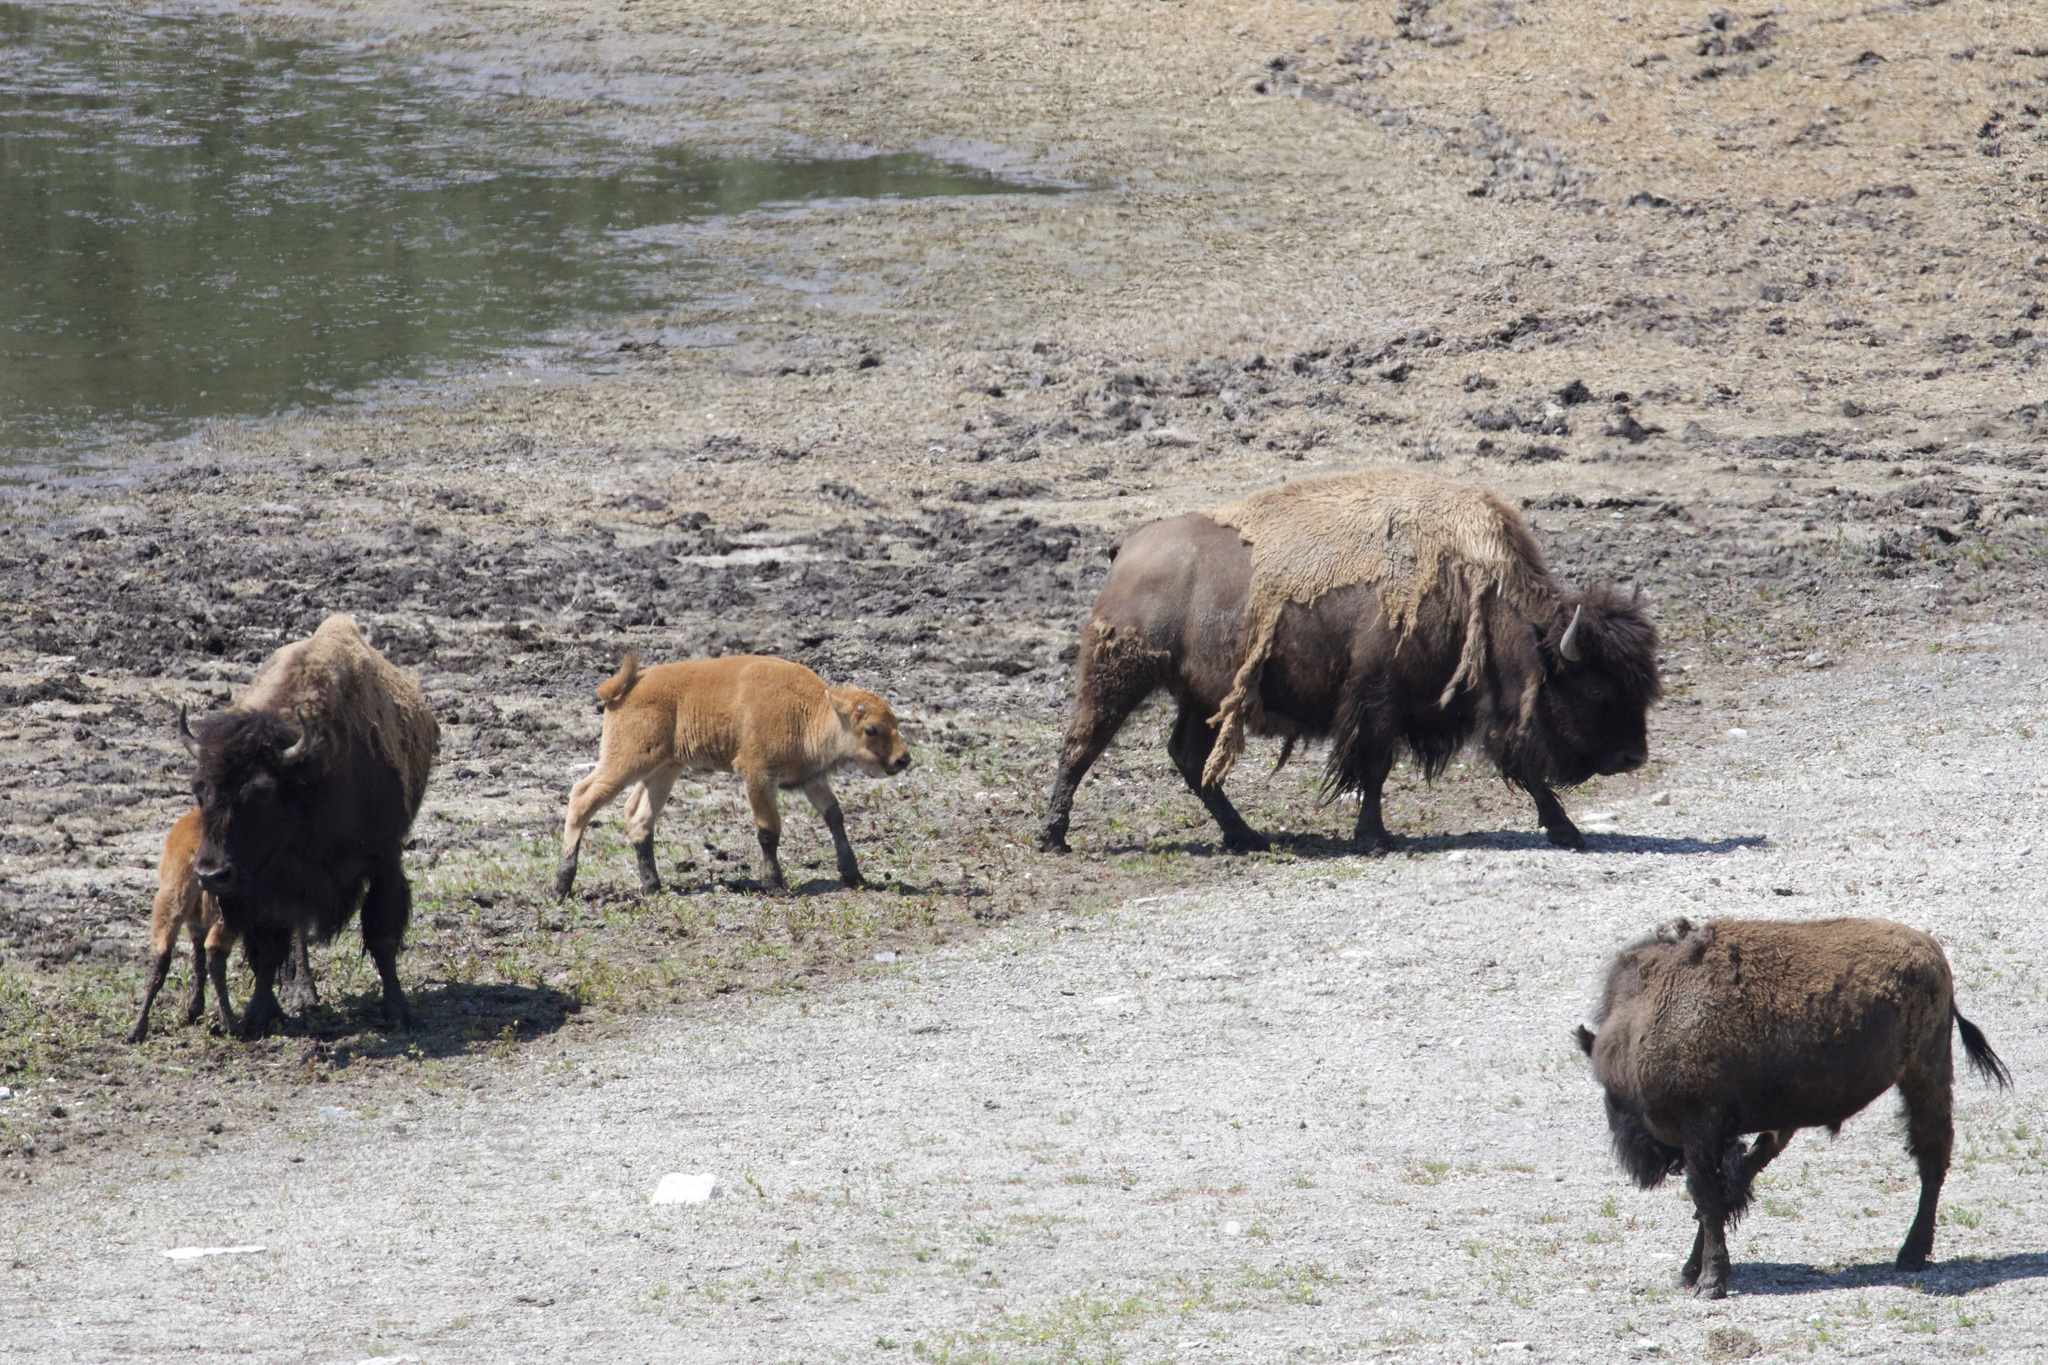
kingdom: Animalia
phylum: Chordata
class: Mammalia
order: Artiodactyla
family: Bovidae
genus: Bison
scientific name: Bison bison
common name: American bison
